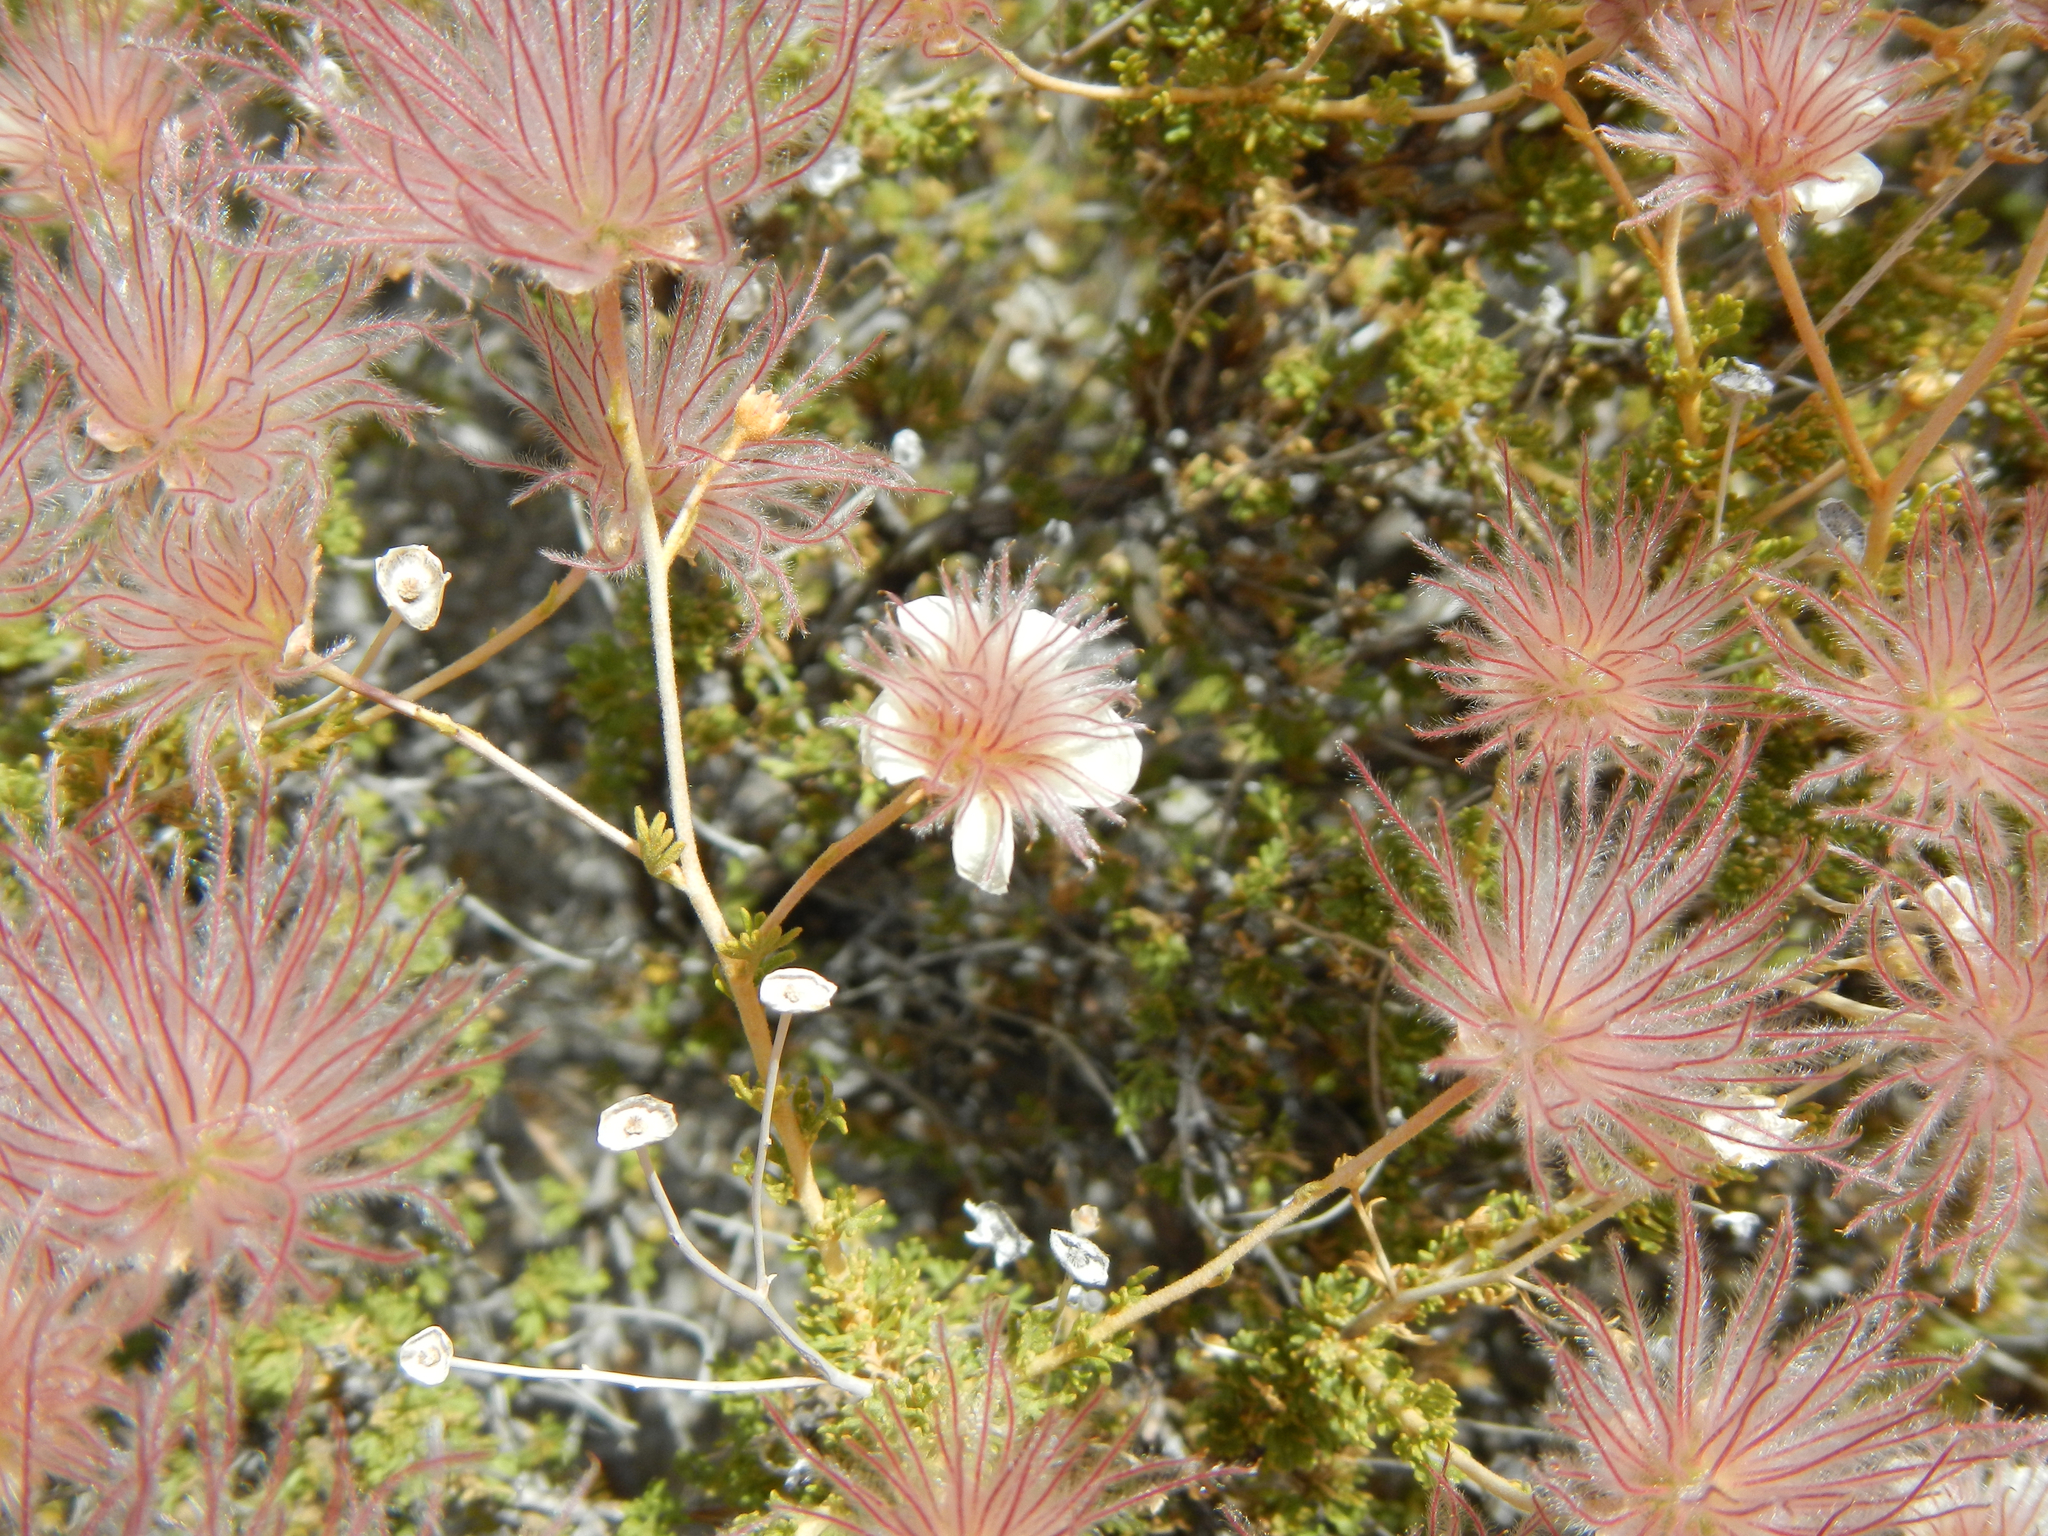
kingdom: Plantae
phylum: Tracheophyta
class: Magnoliopsida
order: Rosales
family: Rosaceae
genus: Fallugia
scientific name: Fallugia paradoxa
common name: Apache-plume
